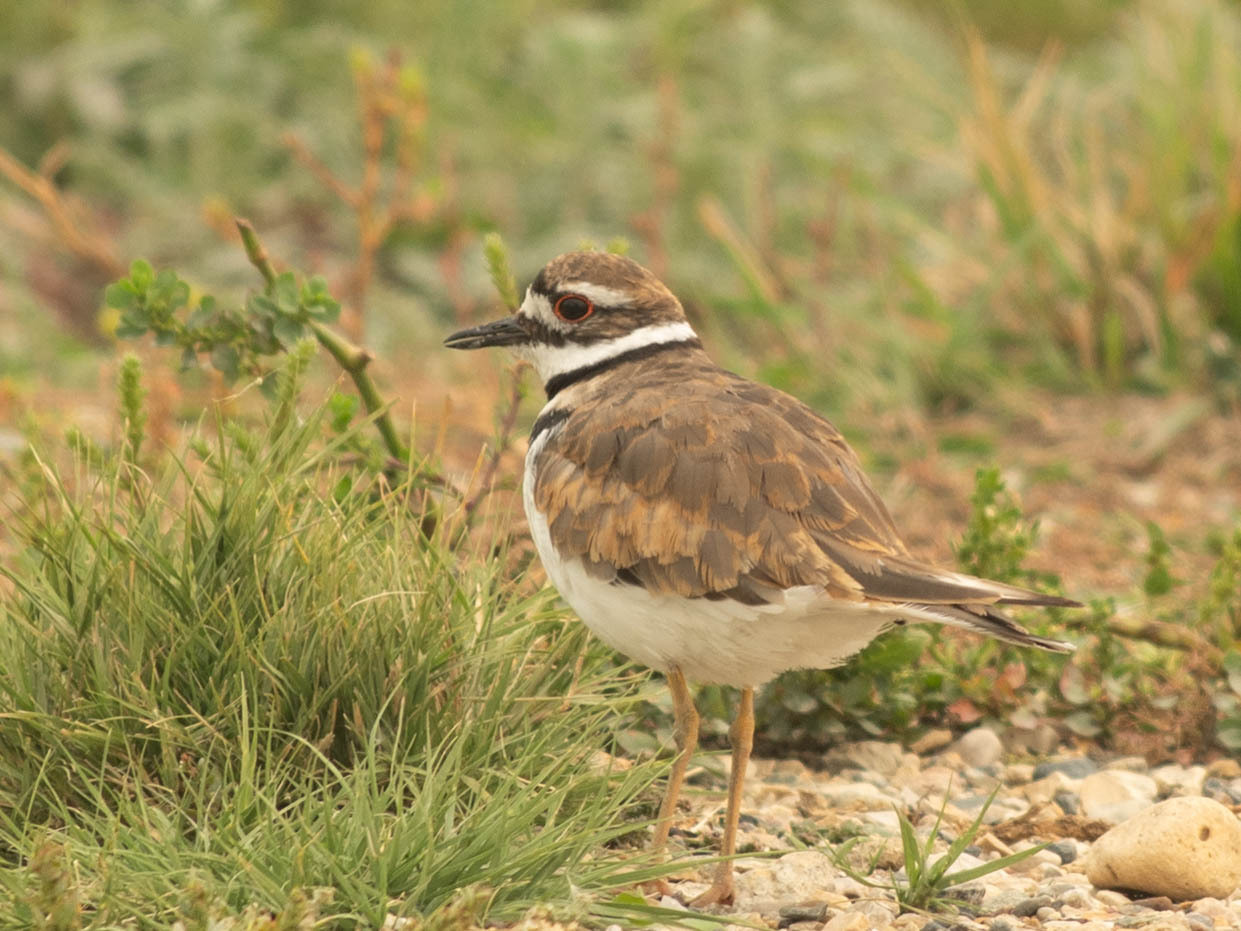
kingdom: Animalia
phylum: Chordata
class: Aves
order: Charadriiformes
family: Charadriidae
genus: Charadrius
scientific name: Charadrius vociferus
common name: Killdeer
